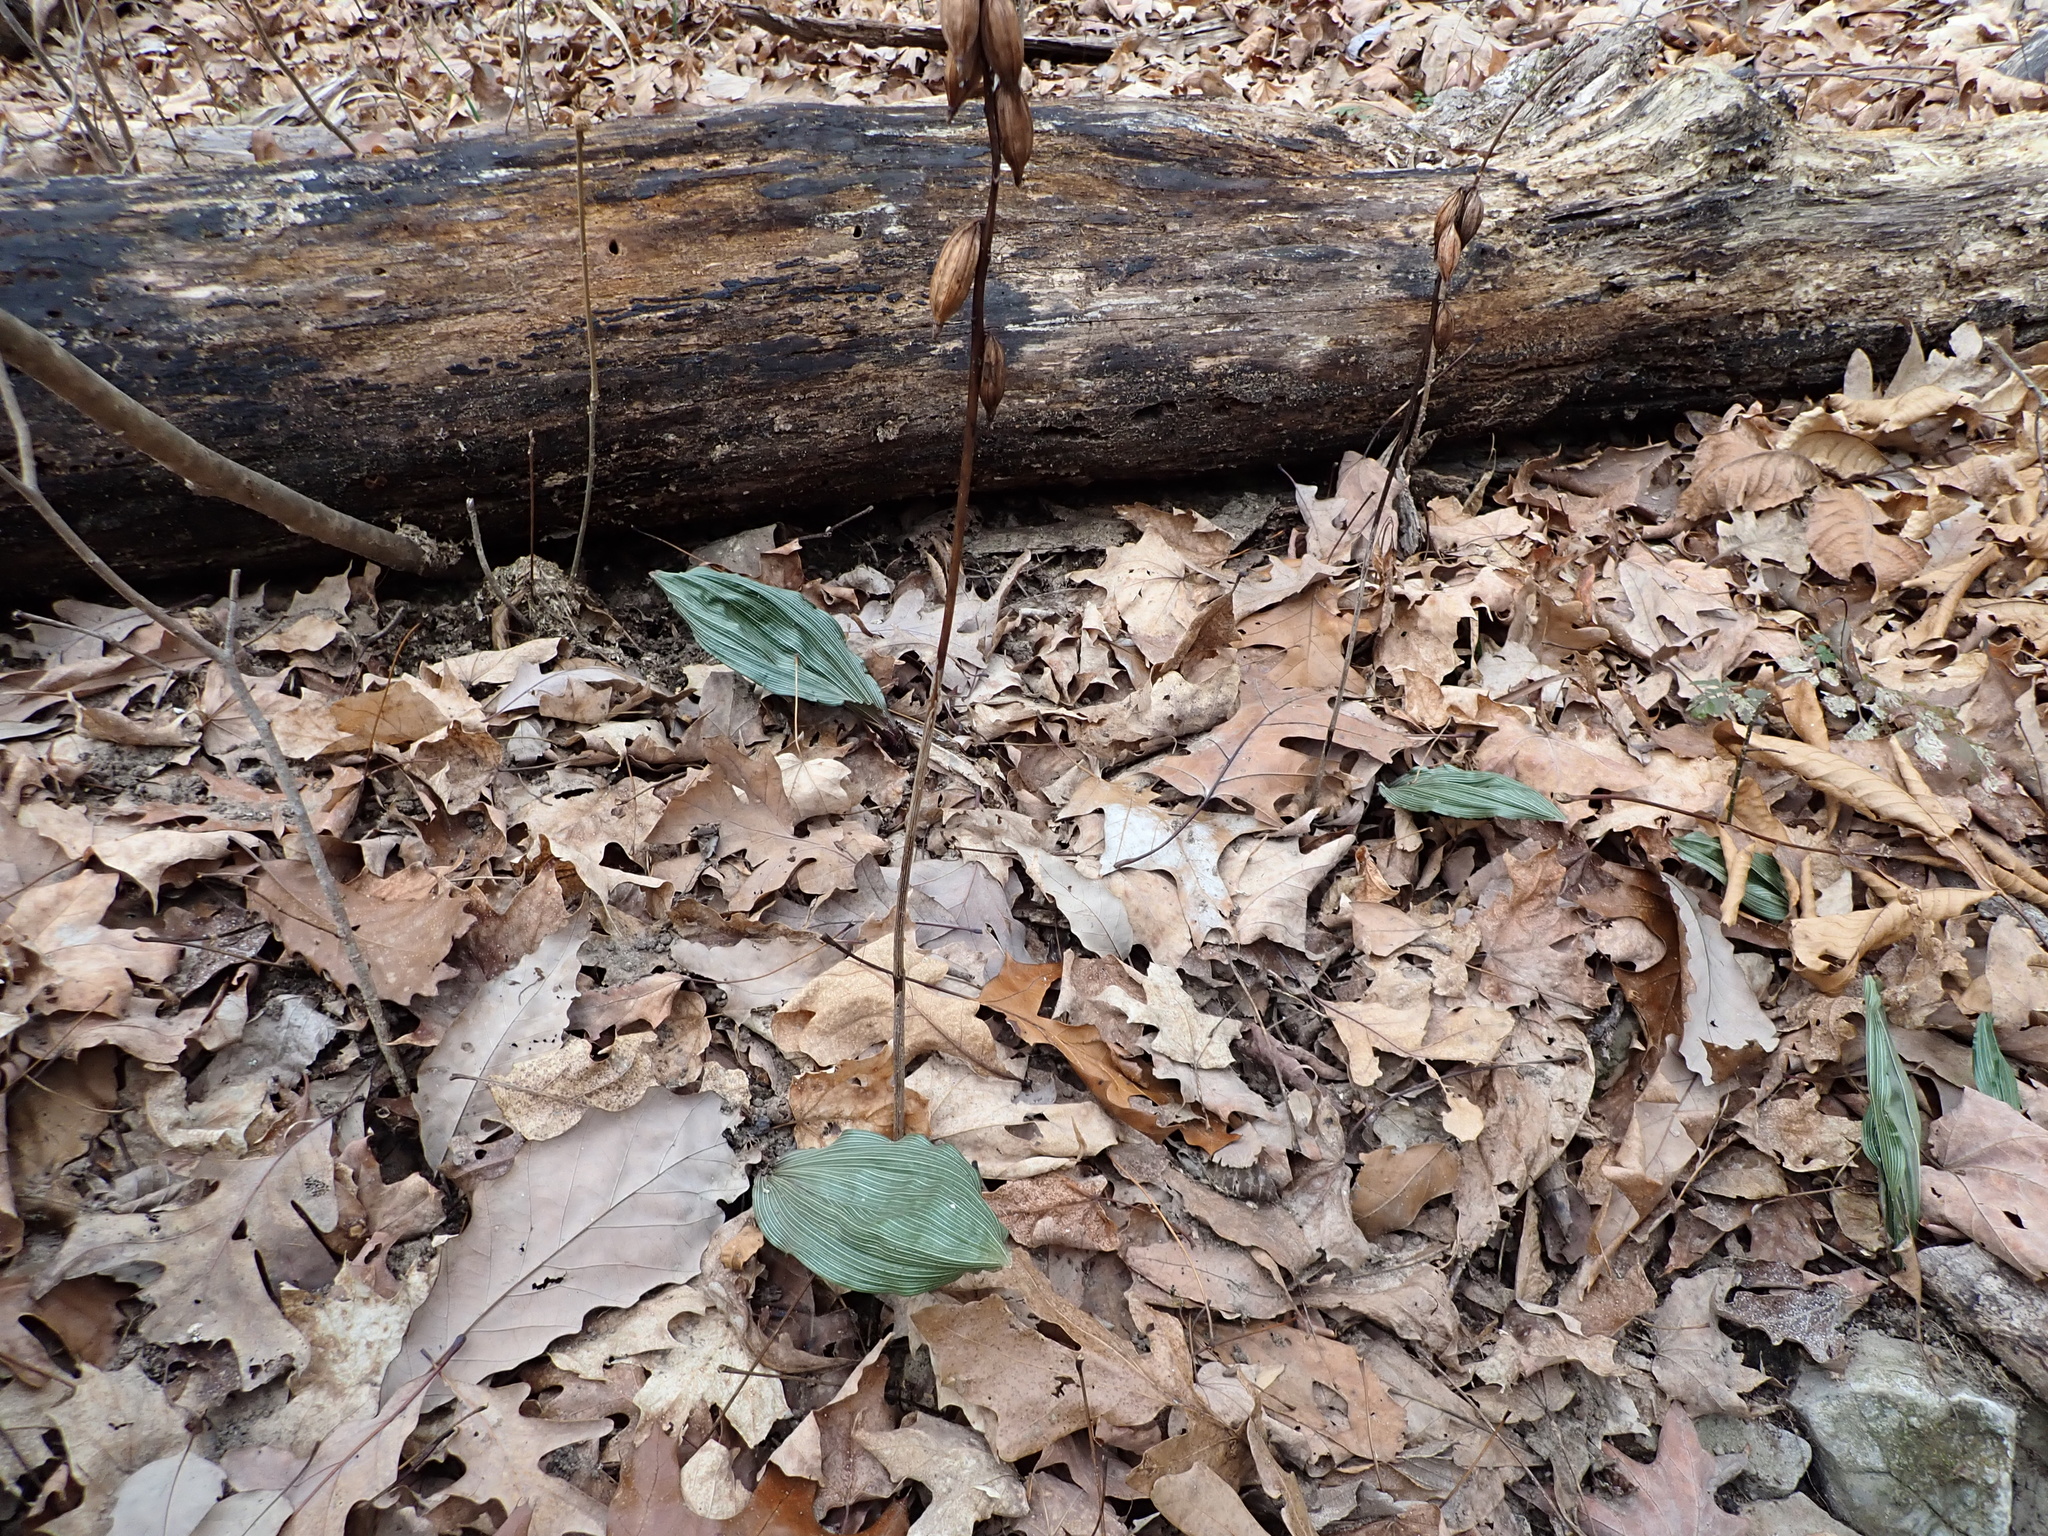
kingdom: Plantae
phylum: Tracheophyta
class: Liliopsida
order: Asparagales
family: Orchidaceae
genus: Aplectrum
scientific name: Aplectrum hyemale
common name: Adam-and-eve
